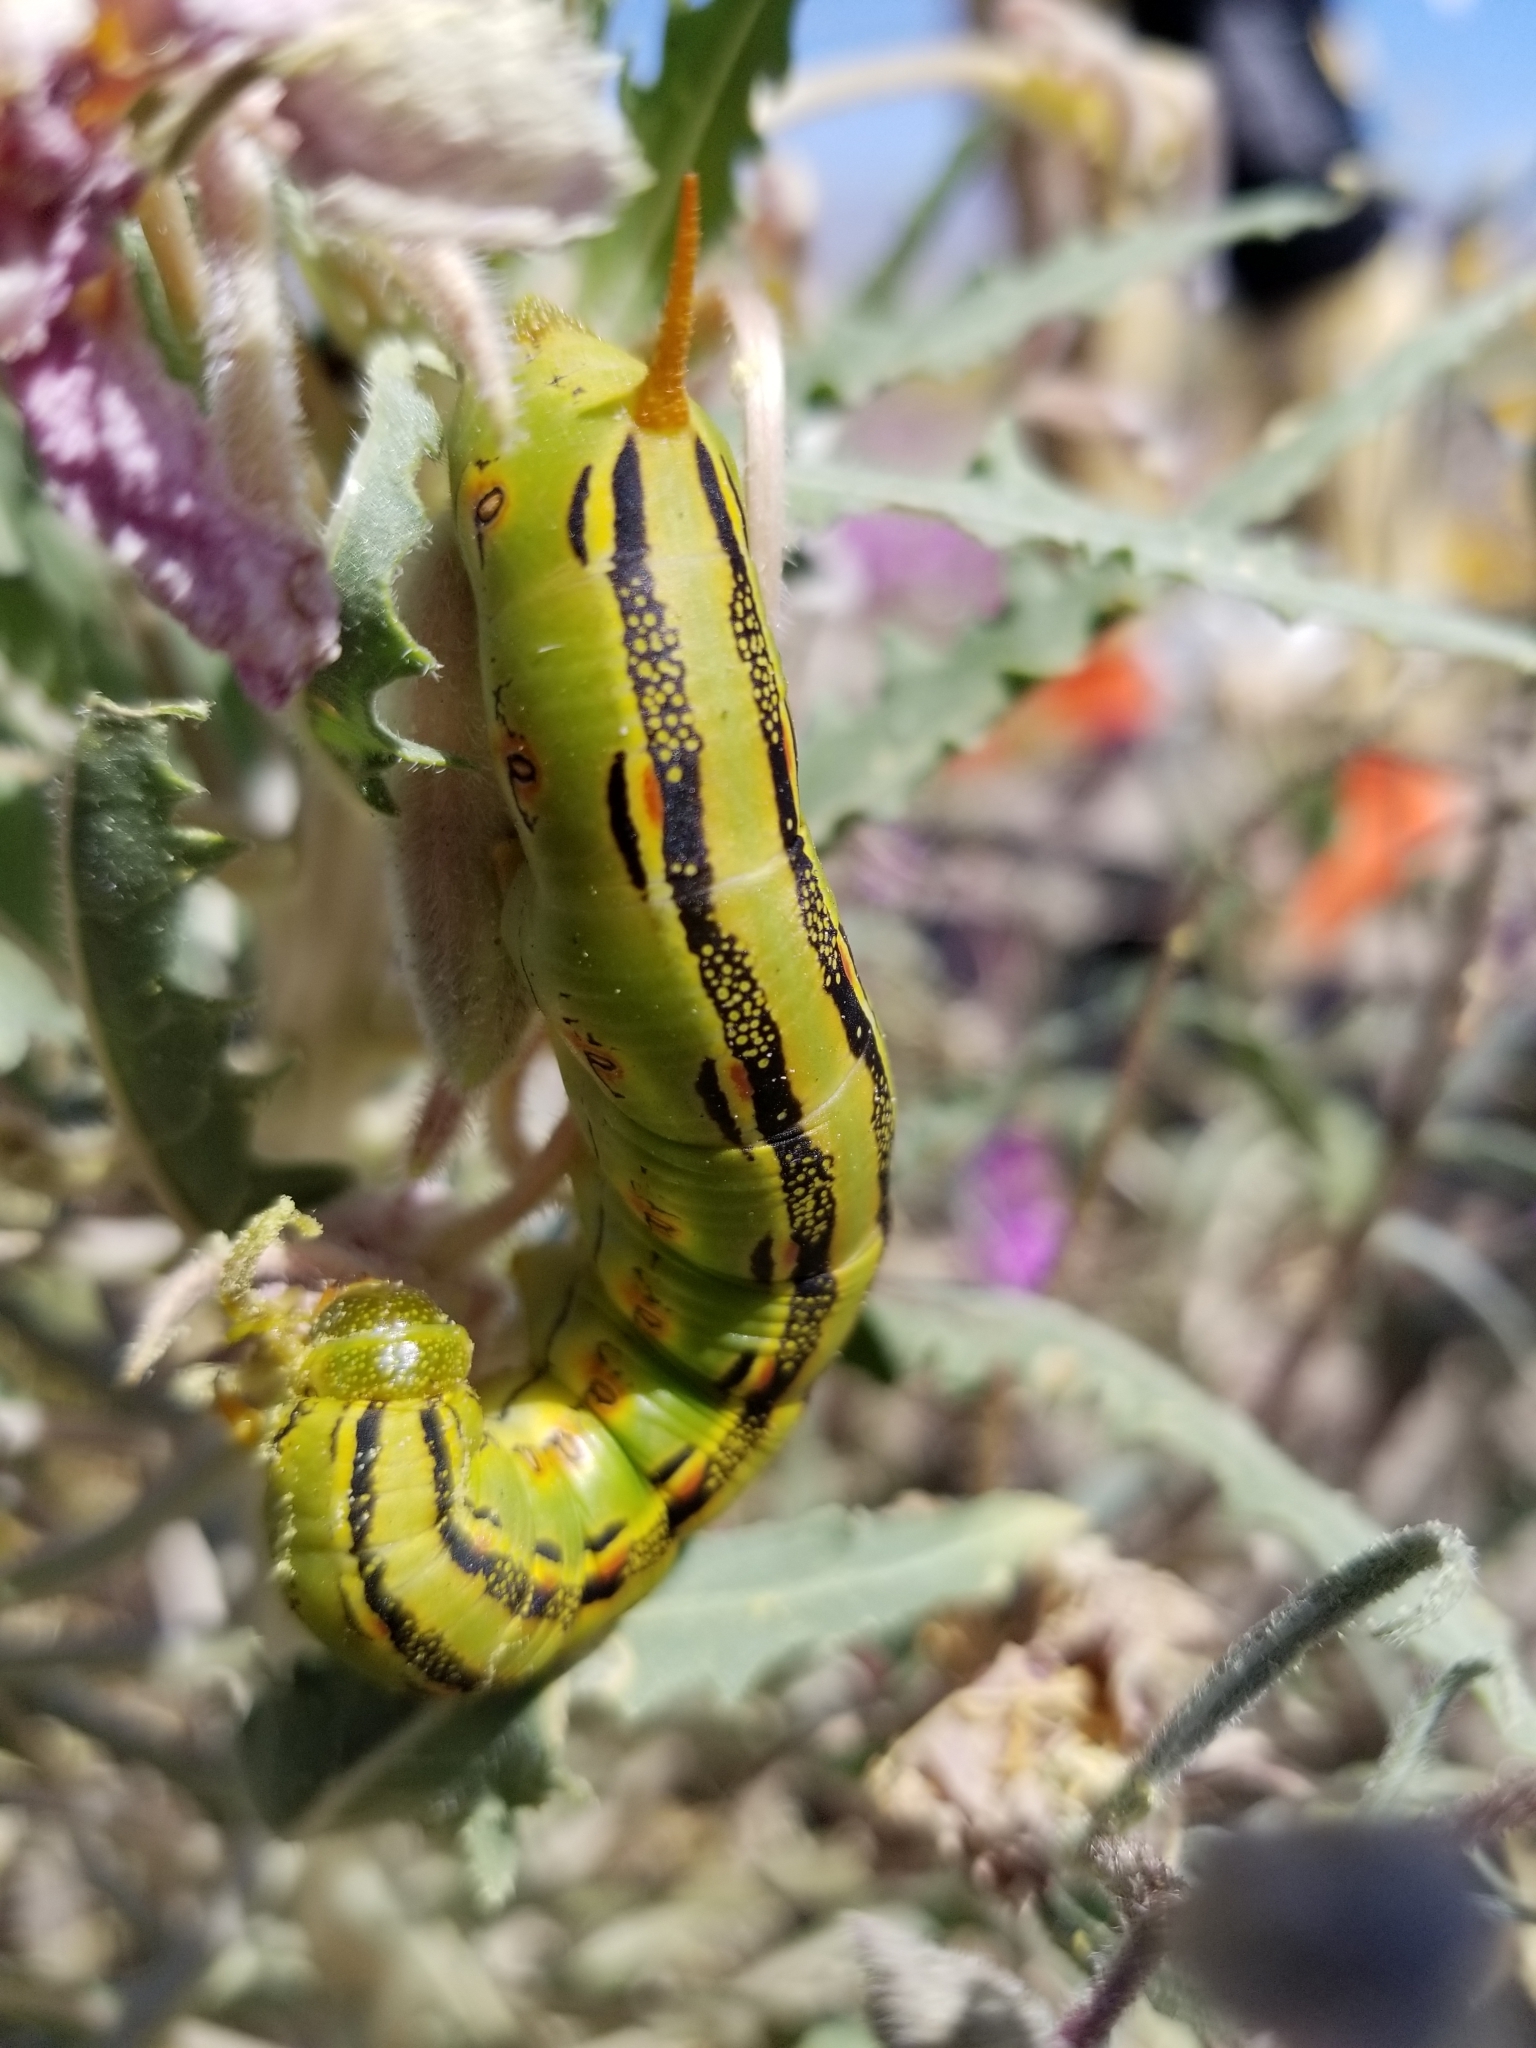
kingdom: Animalia
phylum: Arthropoda
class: Insecta
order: Lepidoptera
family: Sphingidae
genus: Hyles
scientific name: Hyles lineata
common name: White-lined sphinx
